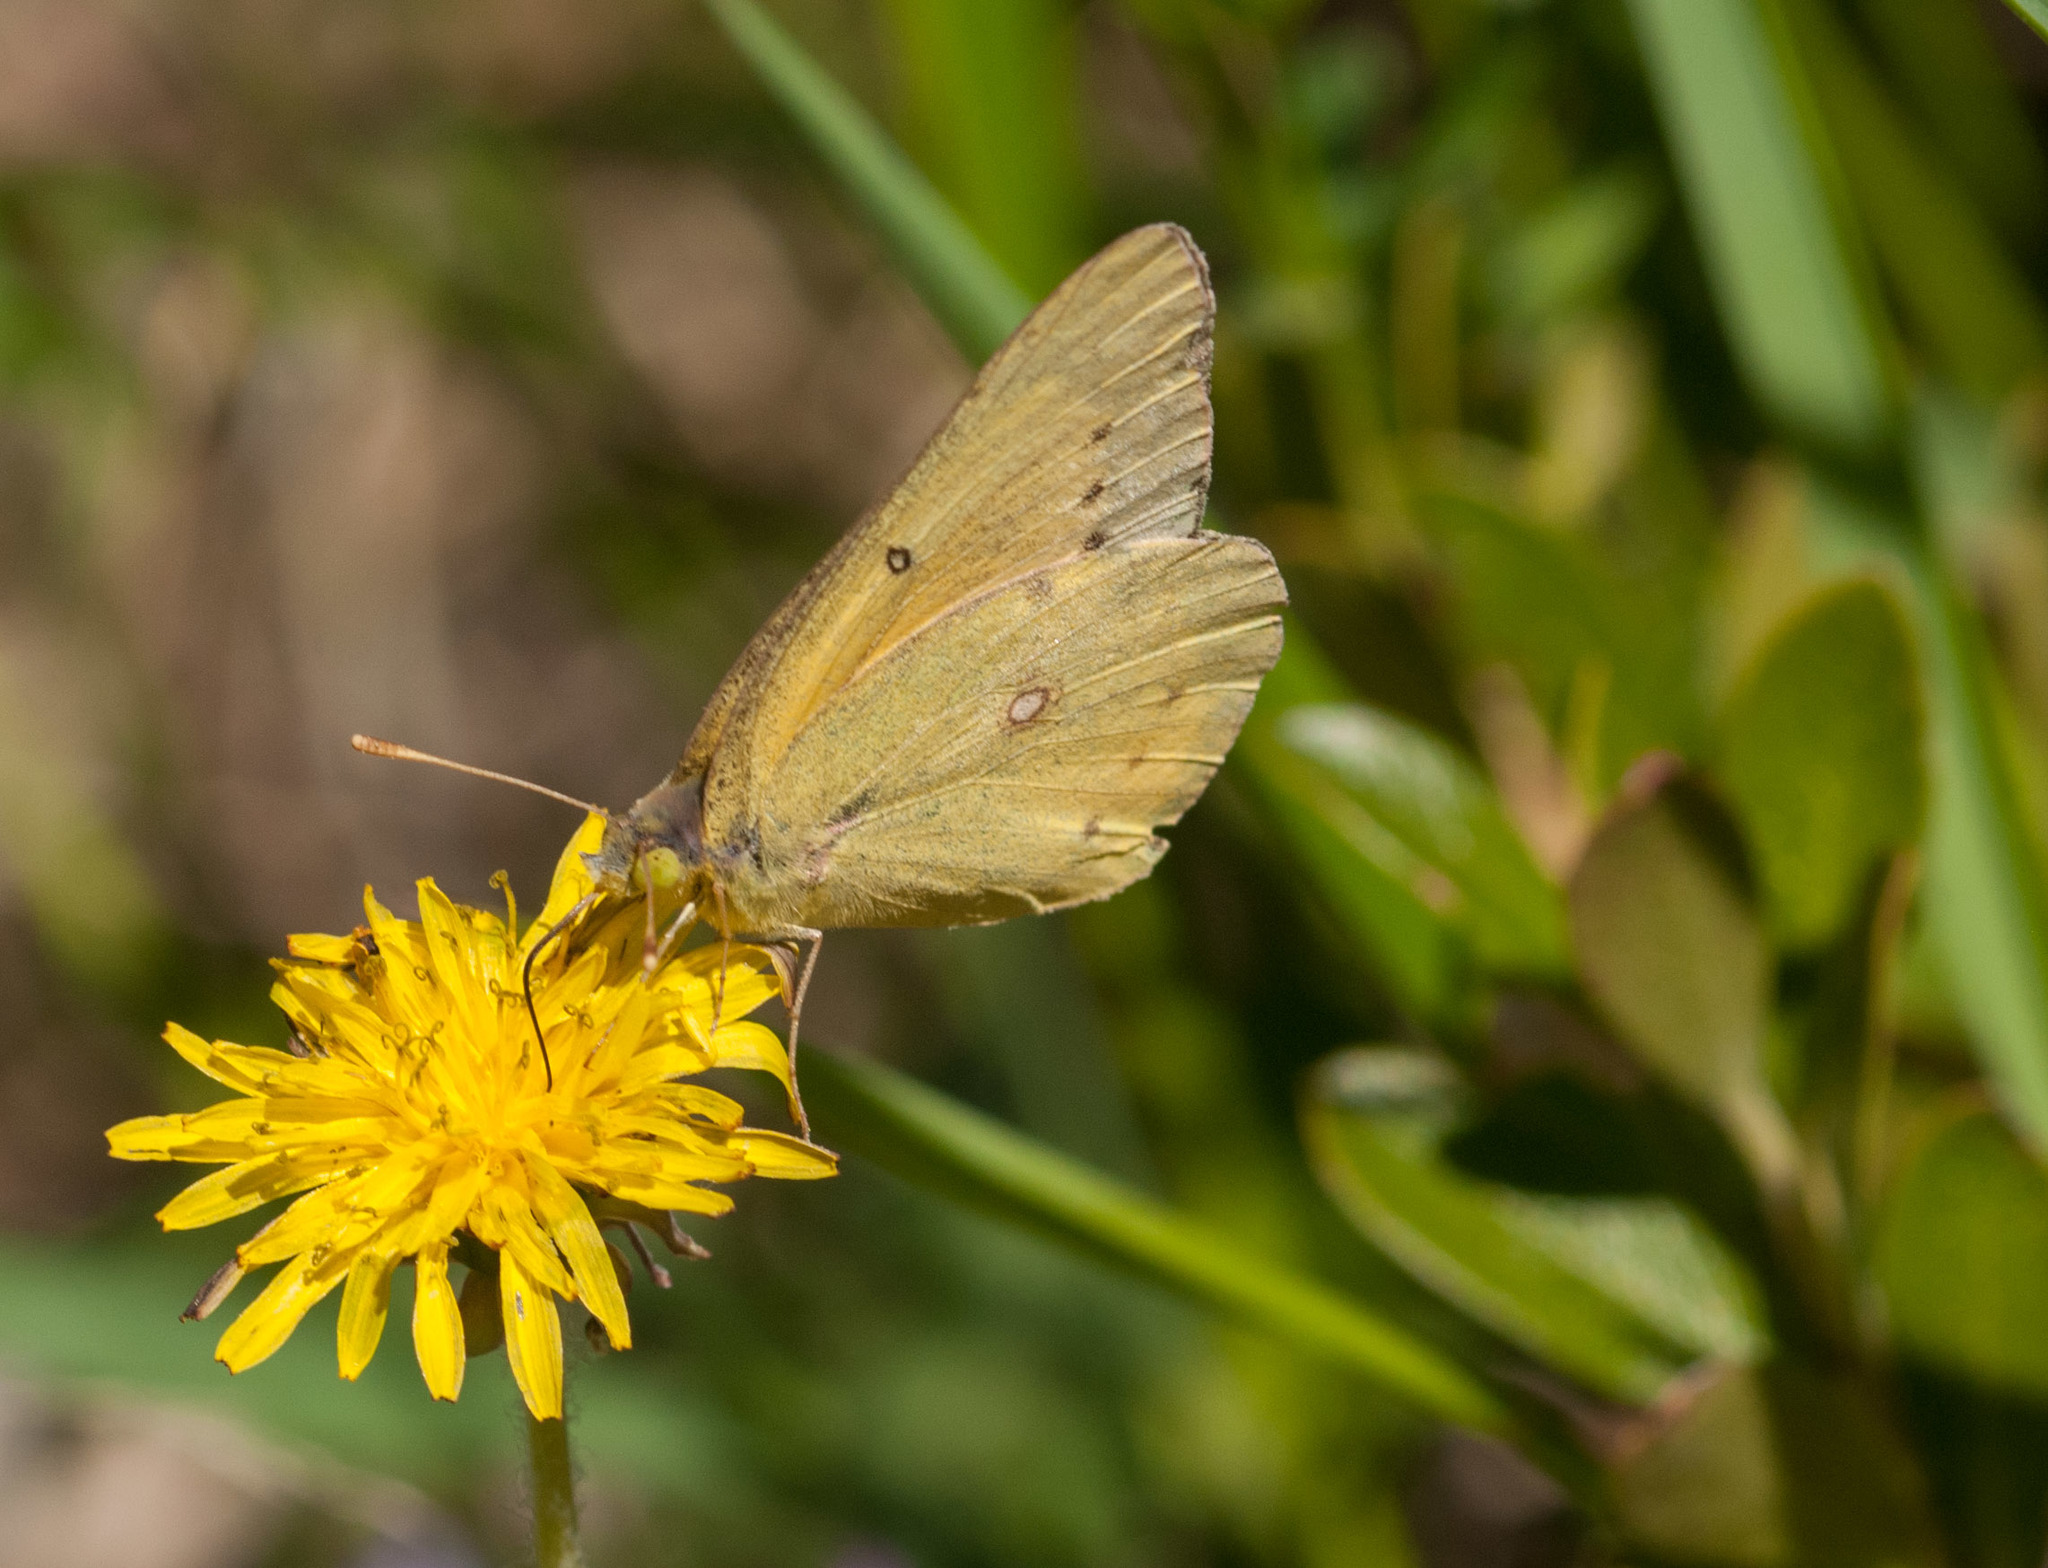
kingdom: Animalia
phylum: Arthropoda
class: Insecta
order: Lepidoptera
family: Pieridae
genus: Colias
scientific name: Colias philodice
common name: Clouded sulphur
